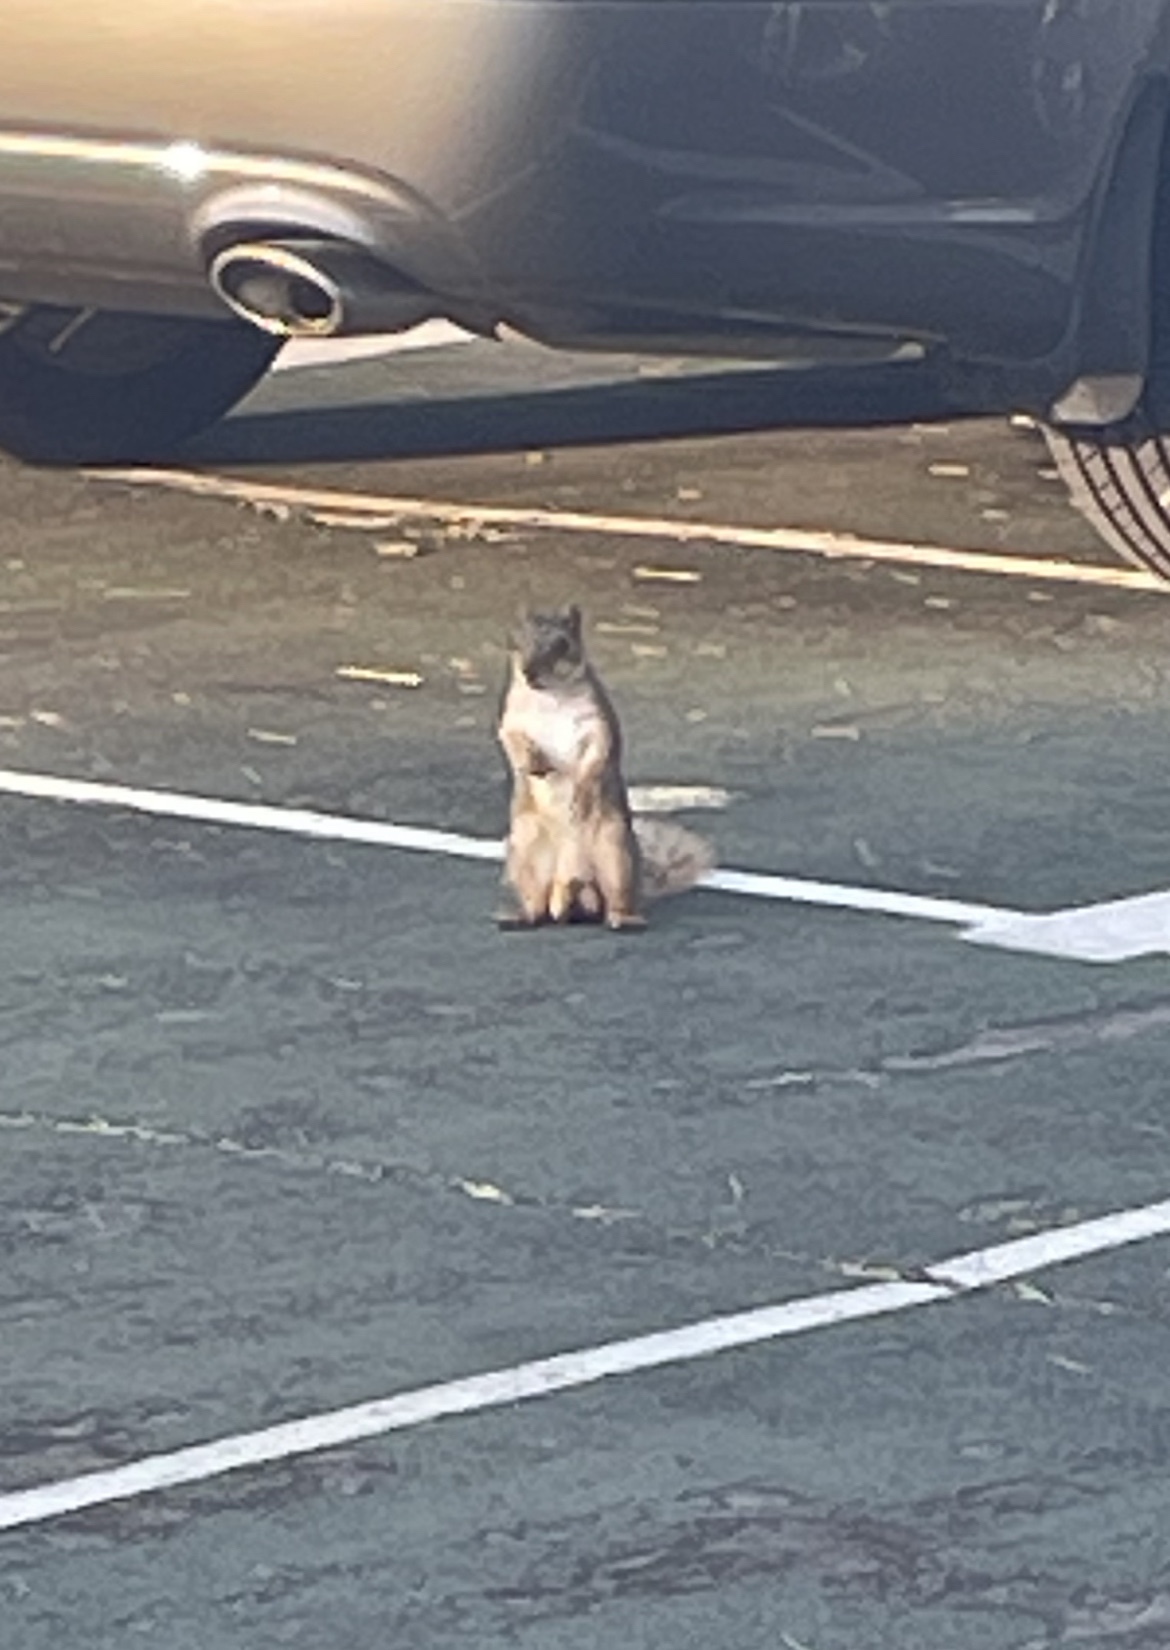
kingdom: Animalia
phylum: Chordata
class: Mammalia
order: Rodentia
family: Sciuridae
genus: Sciurus
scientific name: Sciurus niger
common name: Fox squirrel
